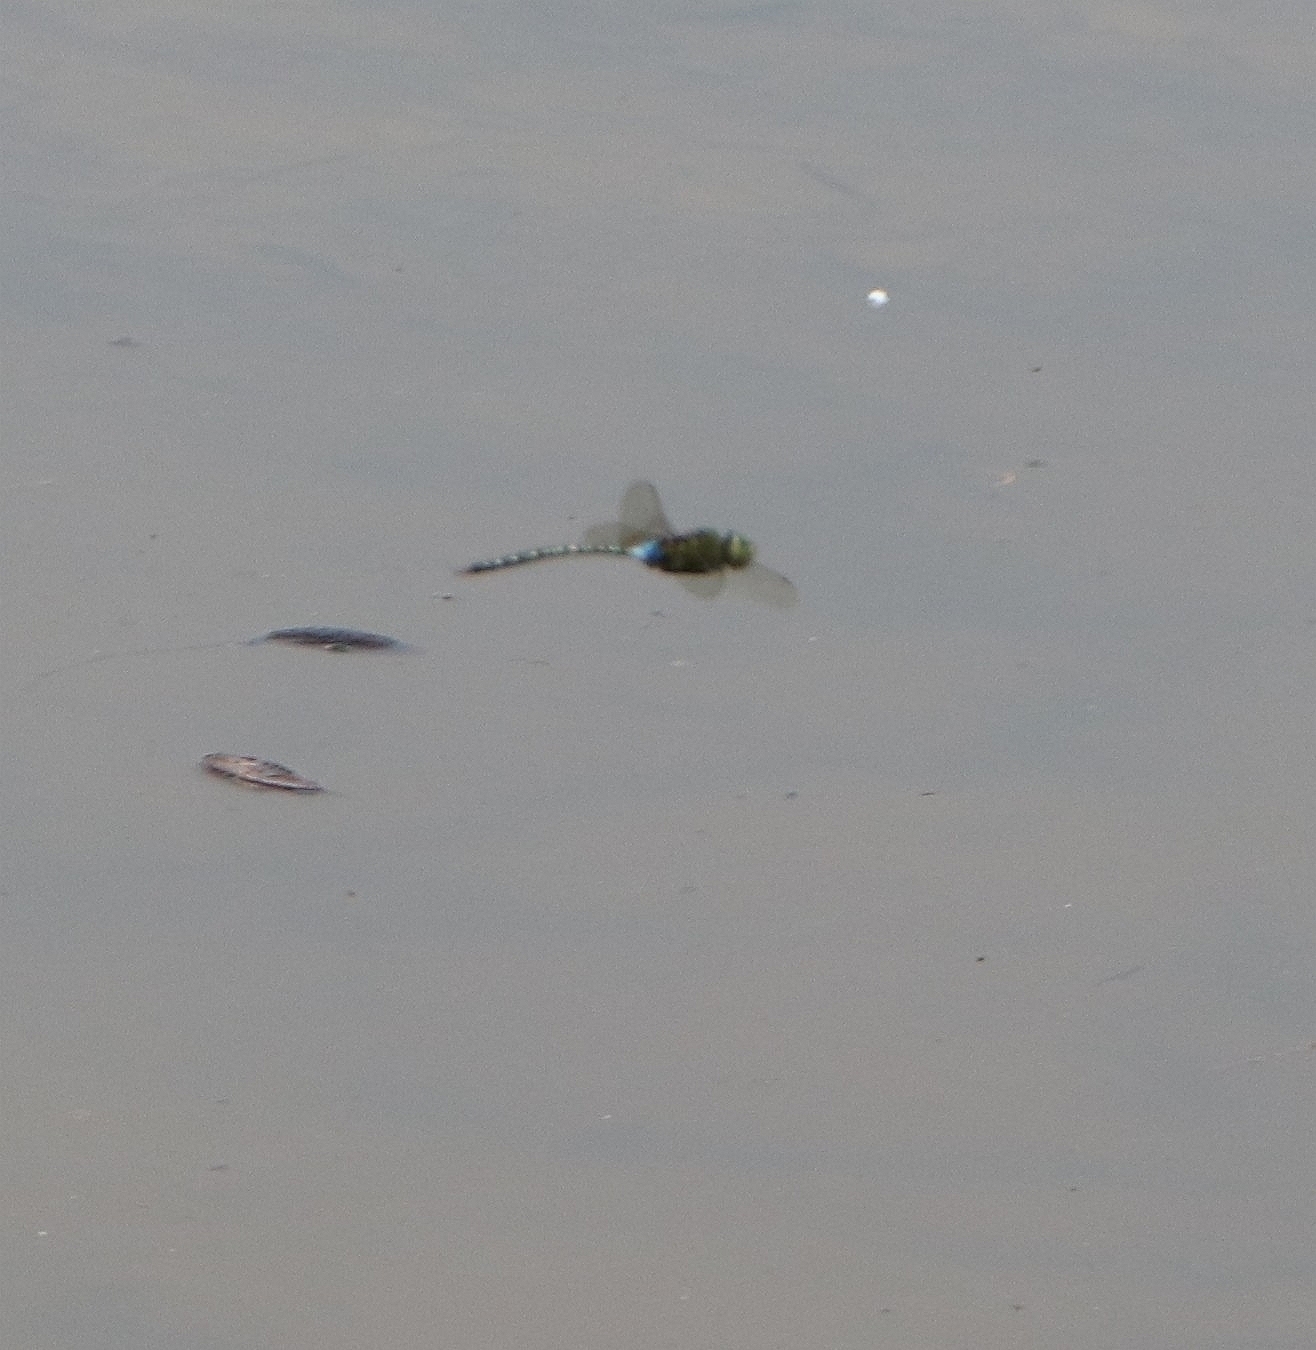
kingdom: Animalia
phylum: Arthropoda
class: Insecta
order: Odonata
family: Aeshnidae
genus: Anax
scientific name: Anax guttatus
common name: Emperor
